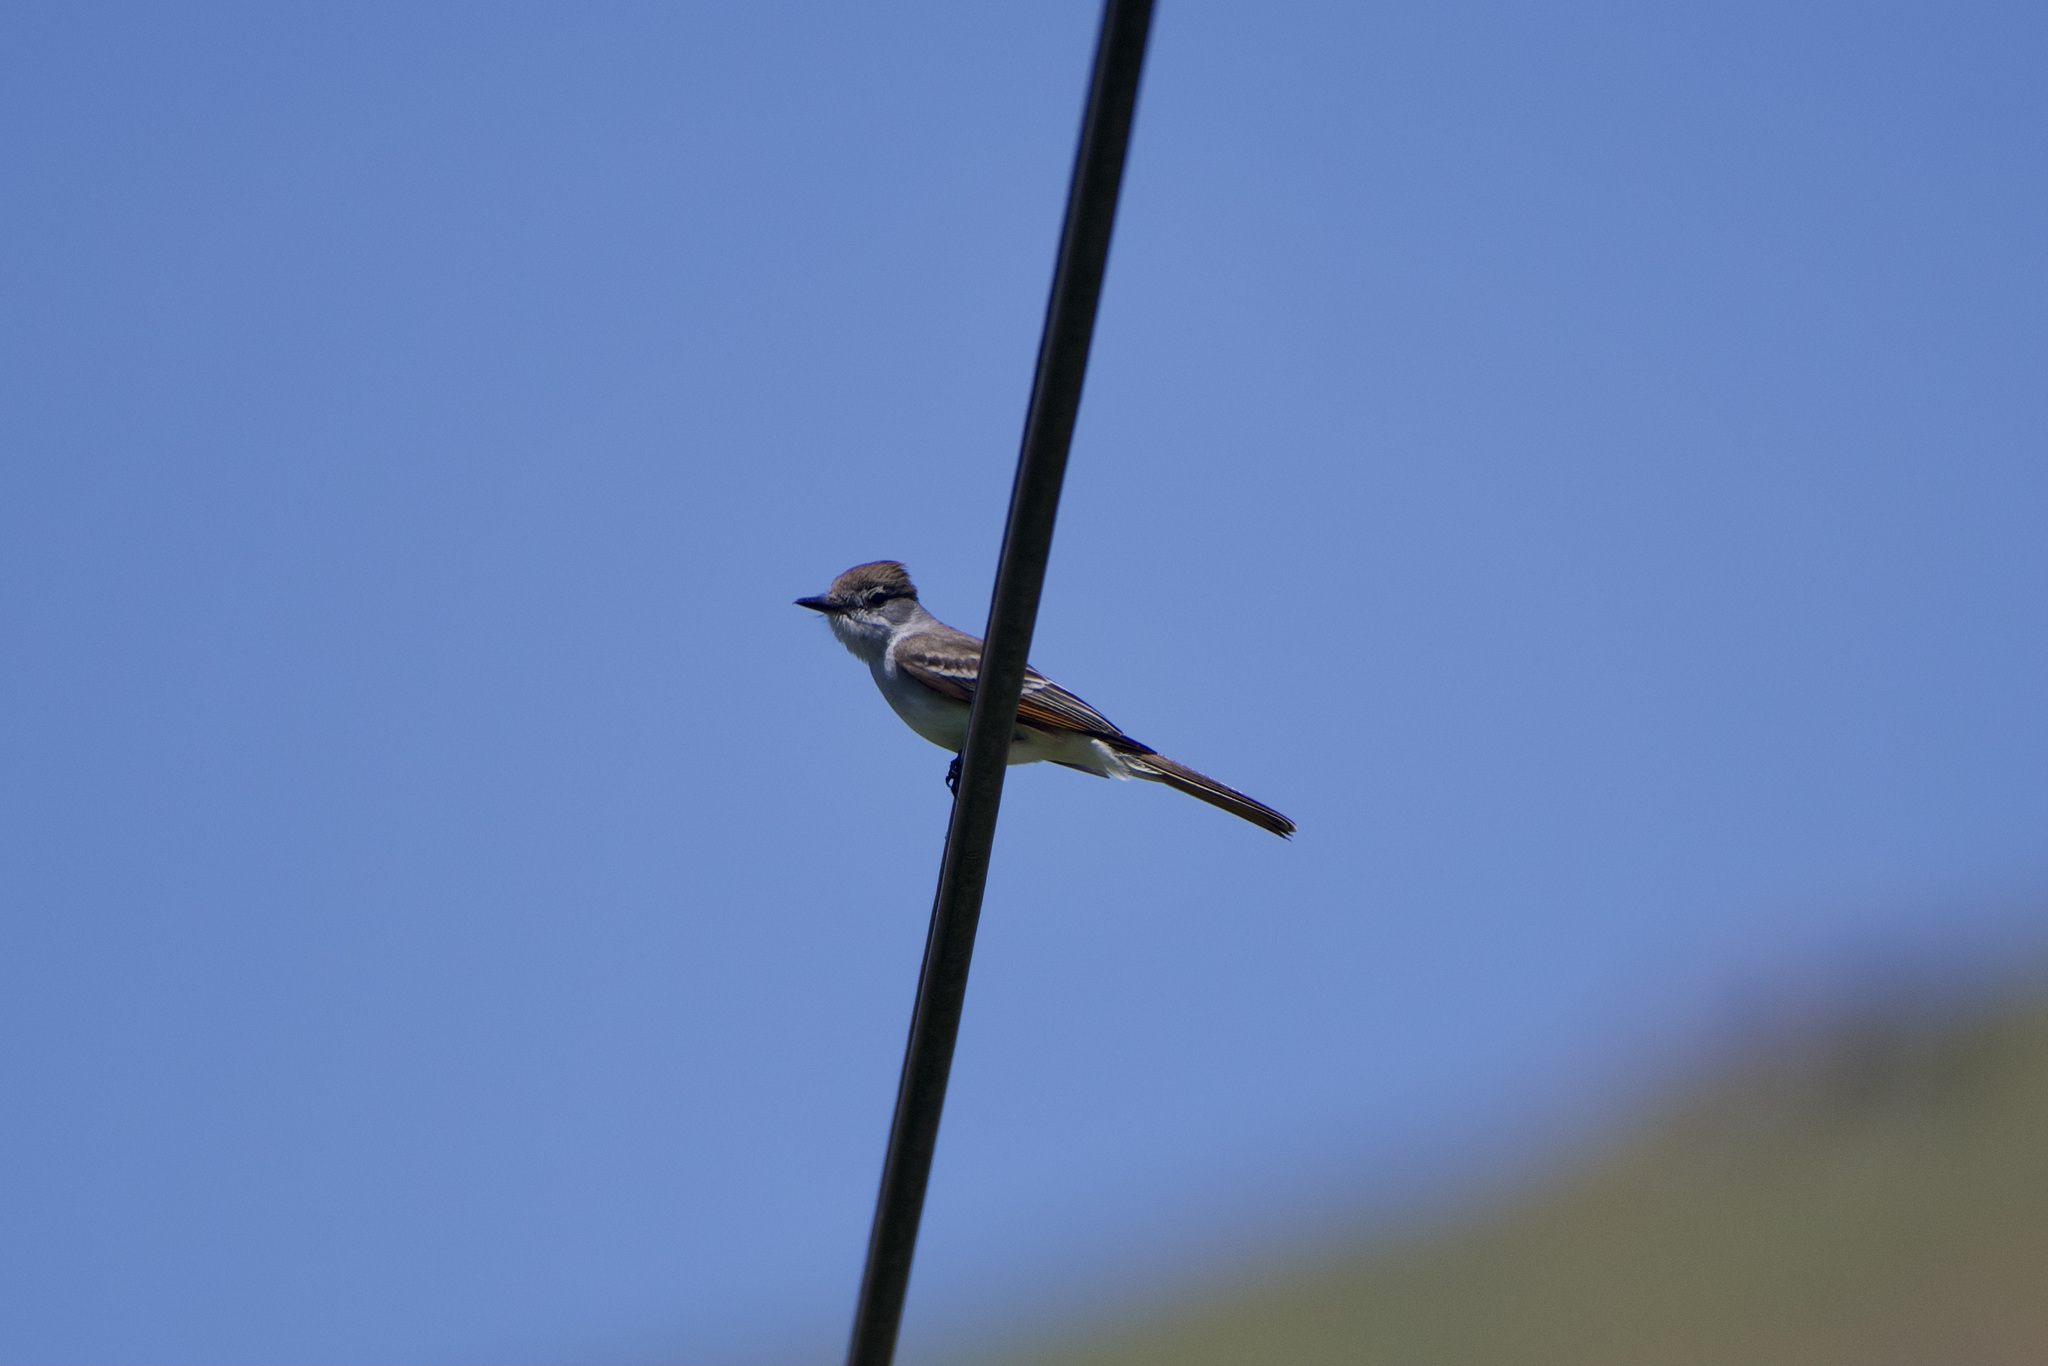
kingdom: Animalia
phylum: Chordata
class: Aves
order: Passeriformes
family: Tyrannidae
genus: Myiarchus
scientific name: Myiarchus cinerascens
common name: Ash-throated flycatcher
